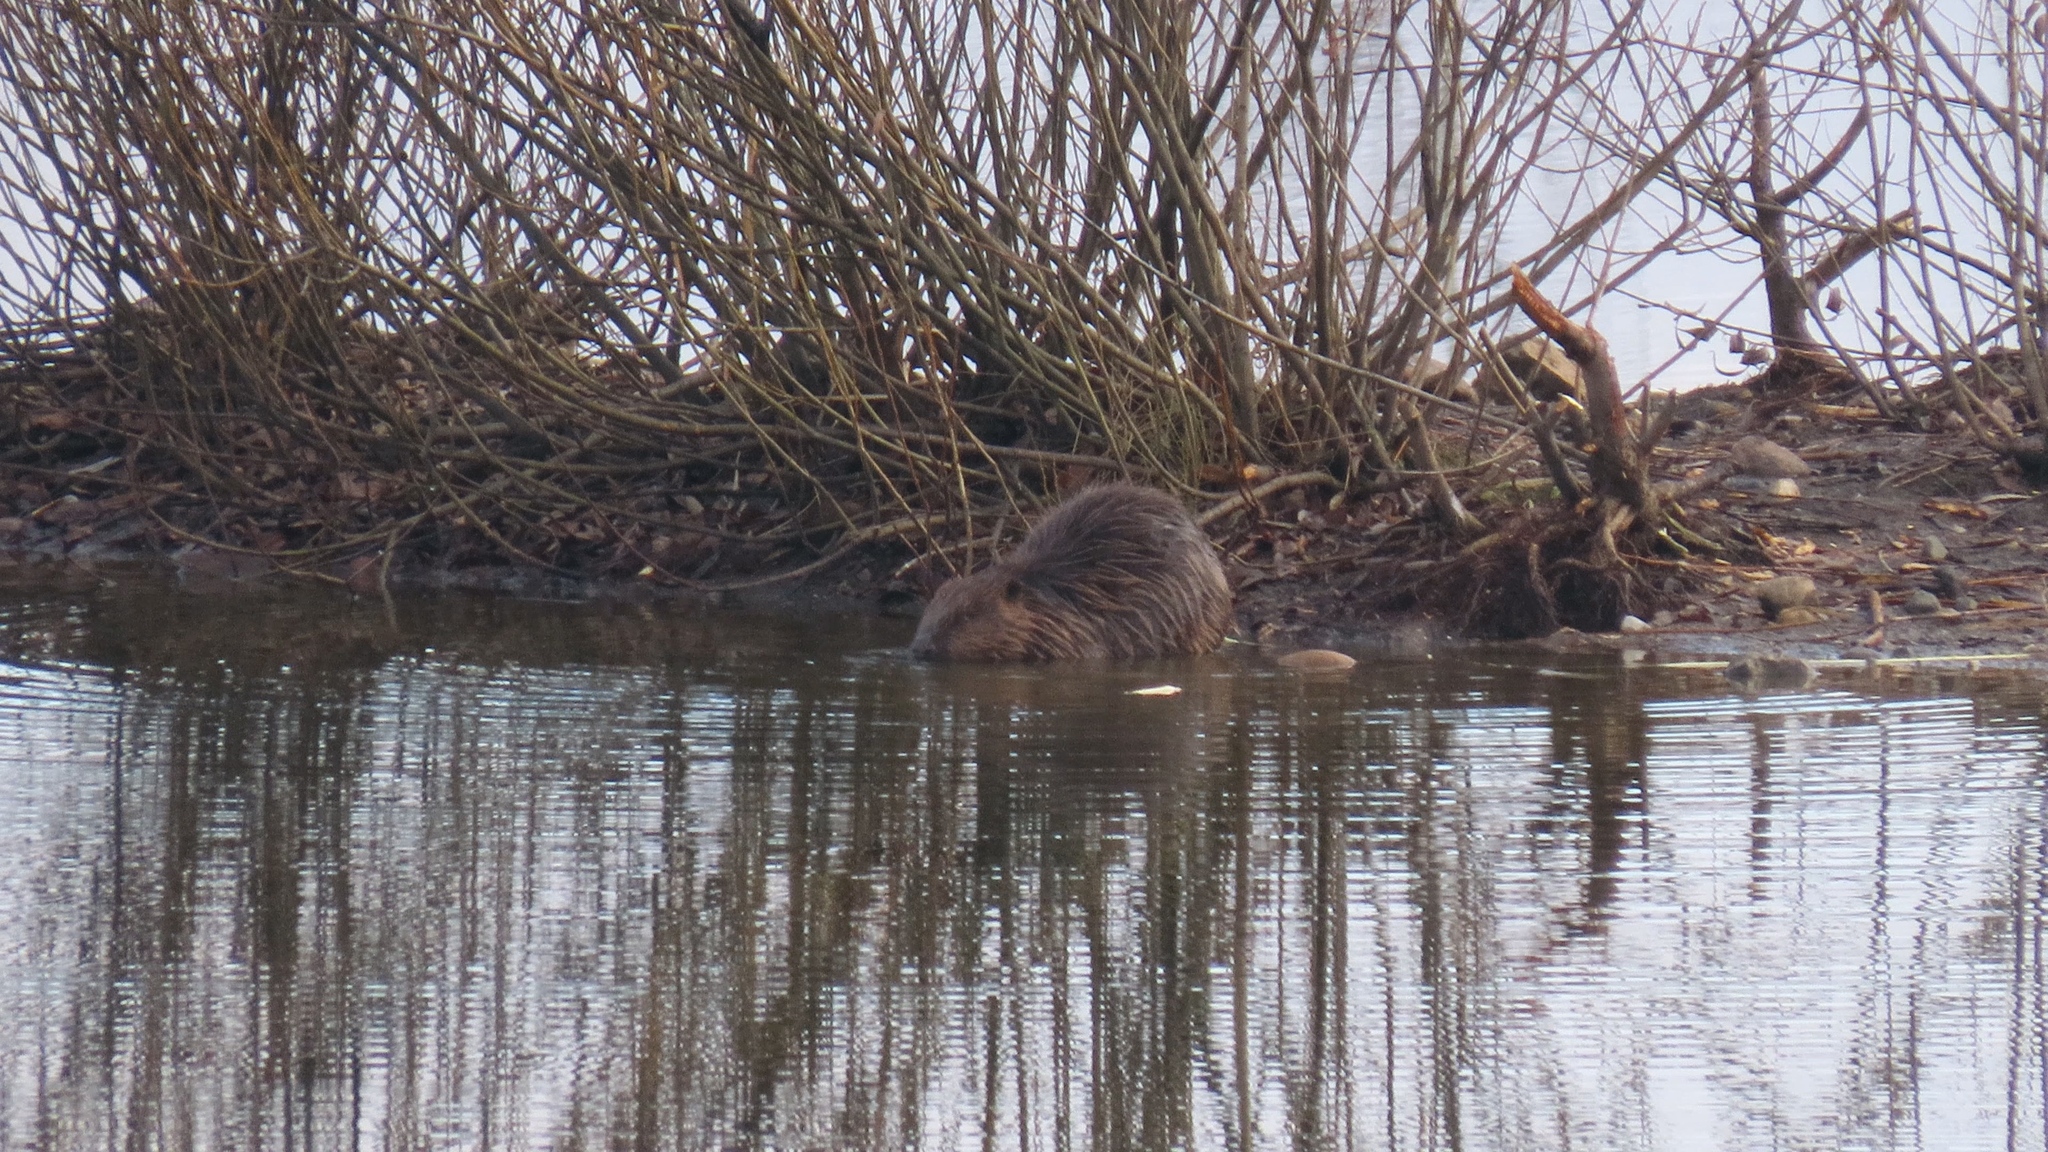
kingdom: Animalia
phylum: Chordata
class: Mammalia
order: Rodentia
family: Castoridae
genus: Castor
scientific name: Castor fiber
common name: Eurasian beaver
